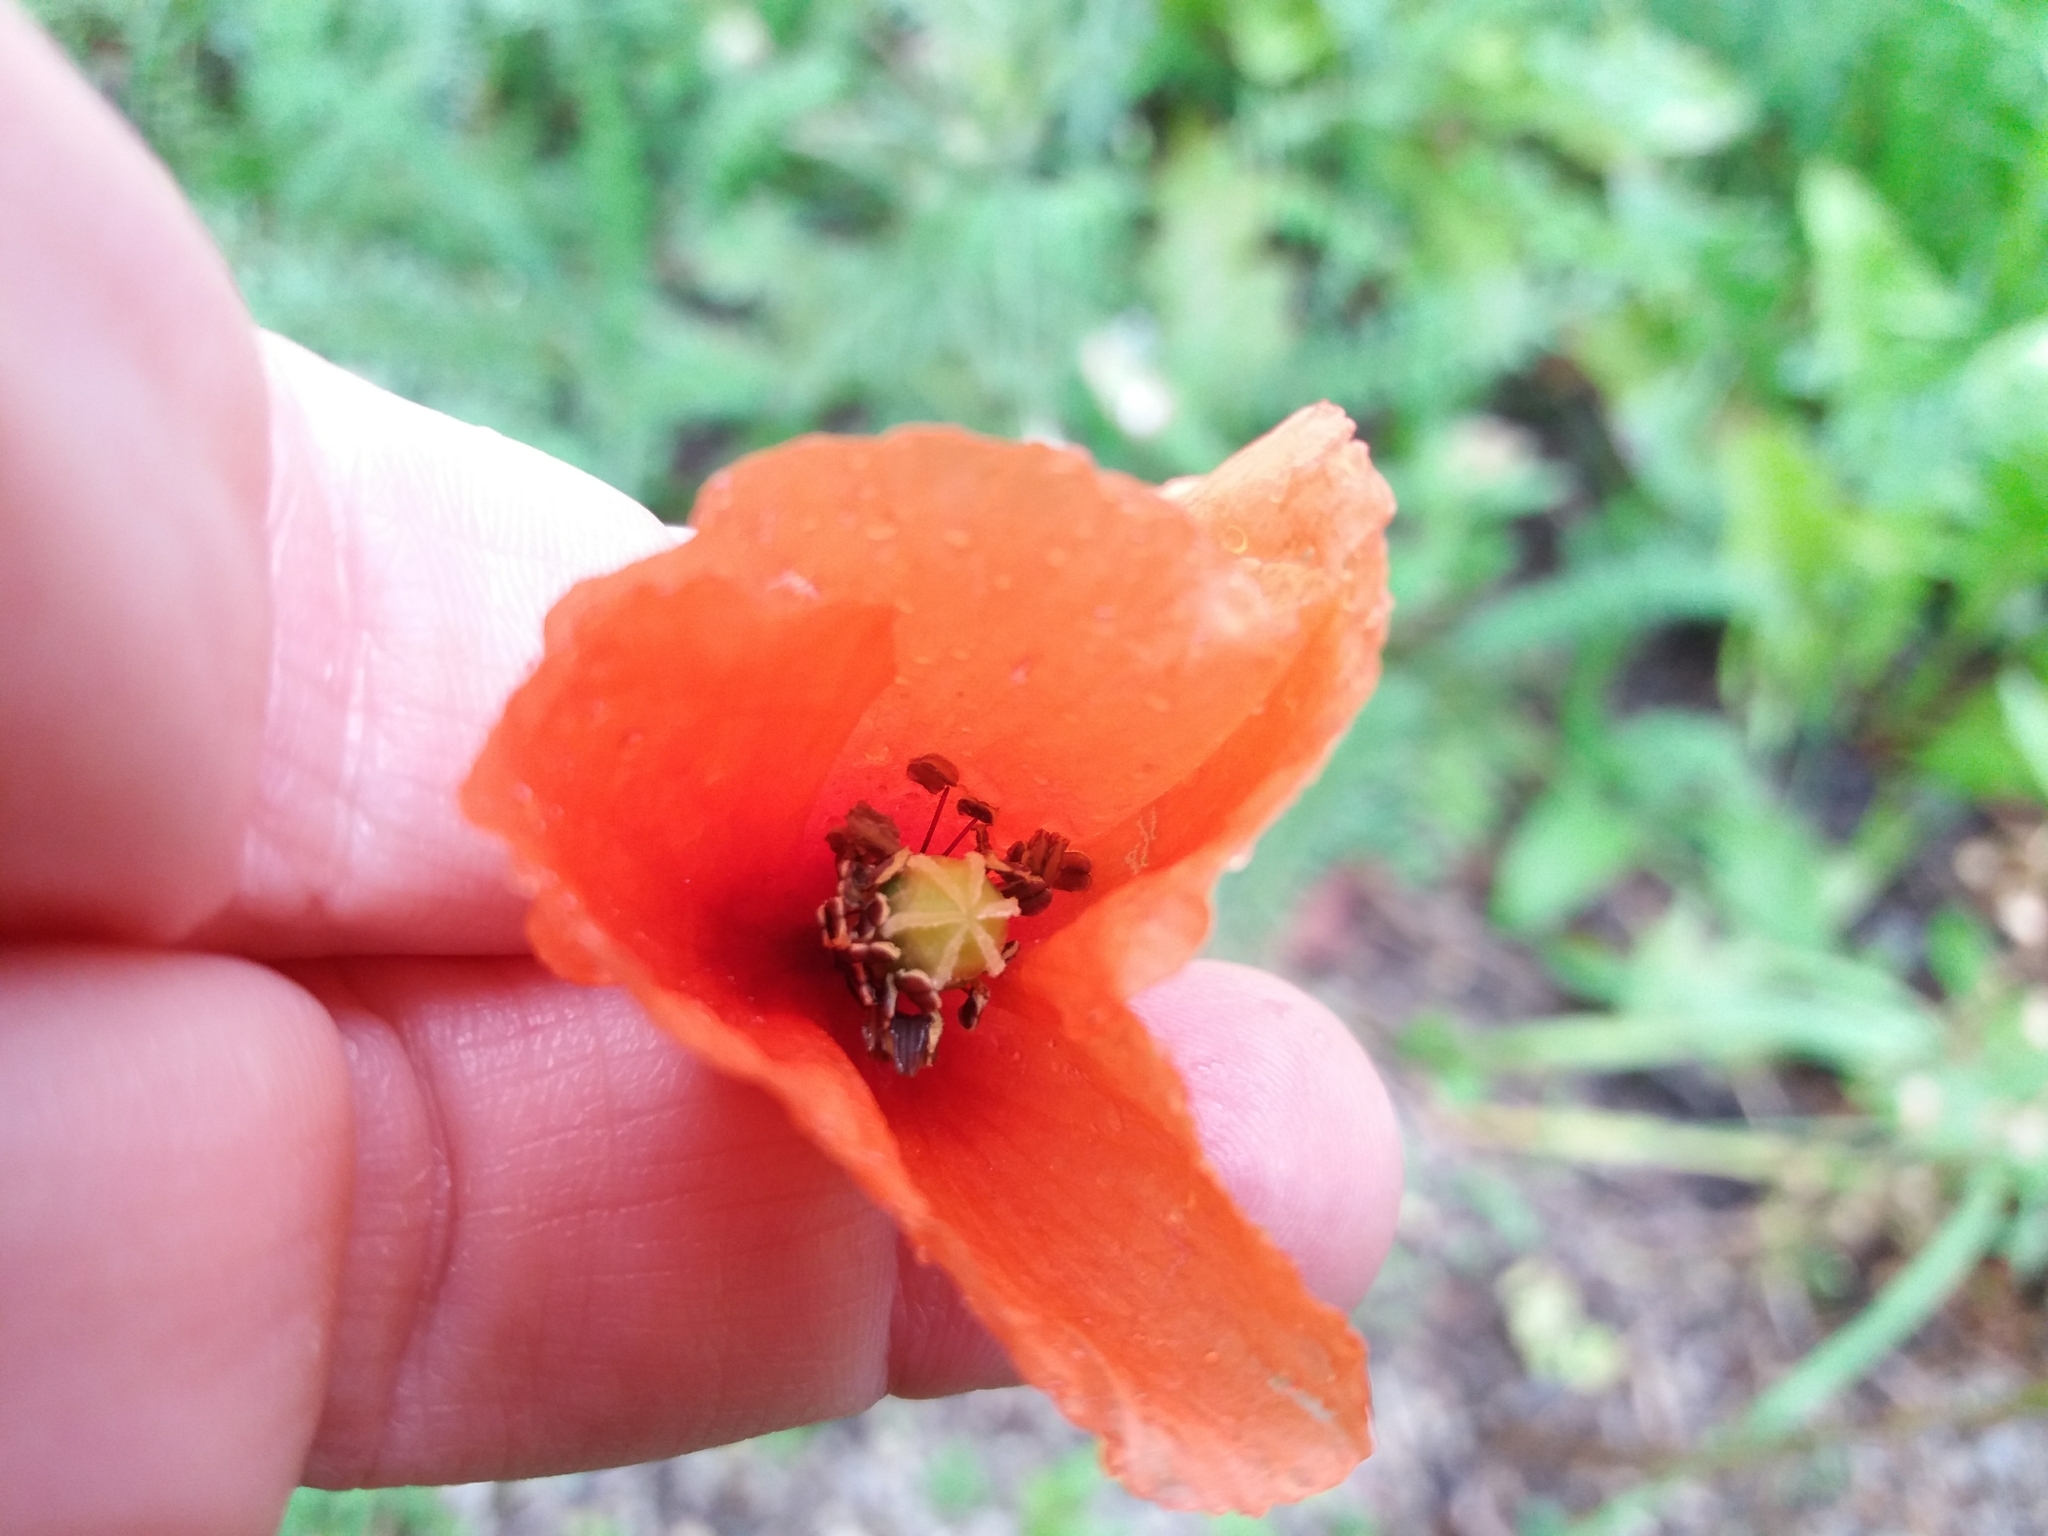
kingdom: Plantae
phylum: Tracheophyta
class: Magnoliopsida
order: Ranunculales
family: Papaveraceae
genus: Papaver
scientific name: Papaver rhoeas
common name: Corn poppy
